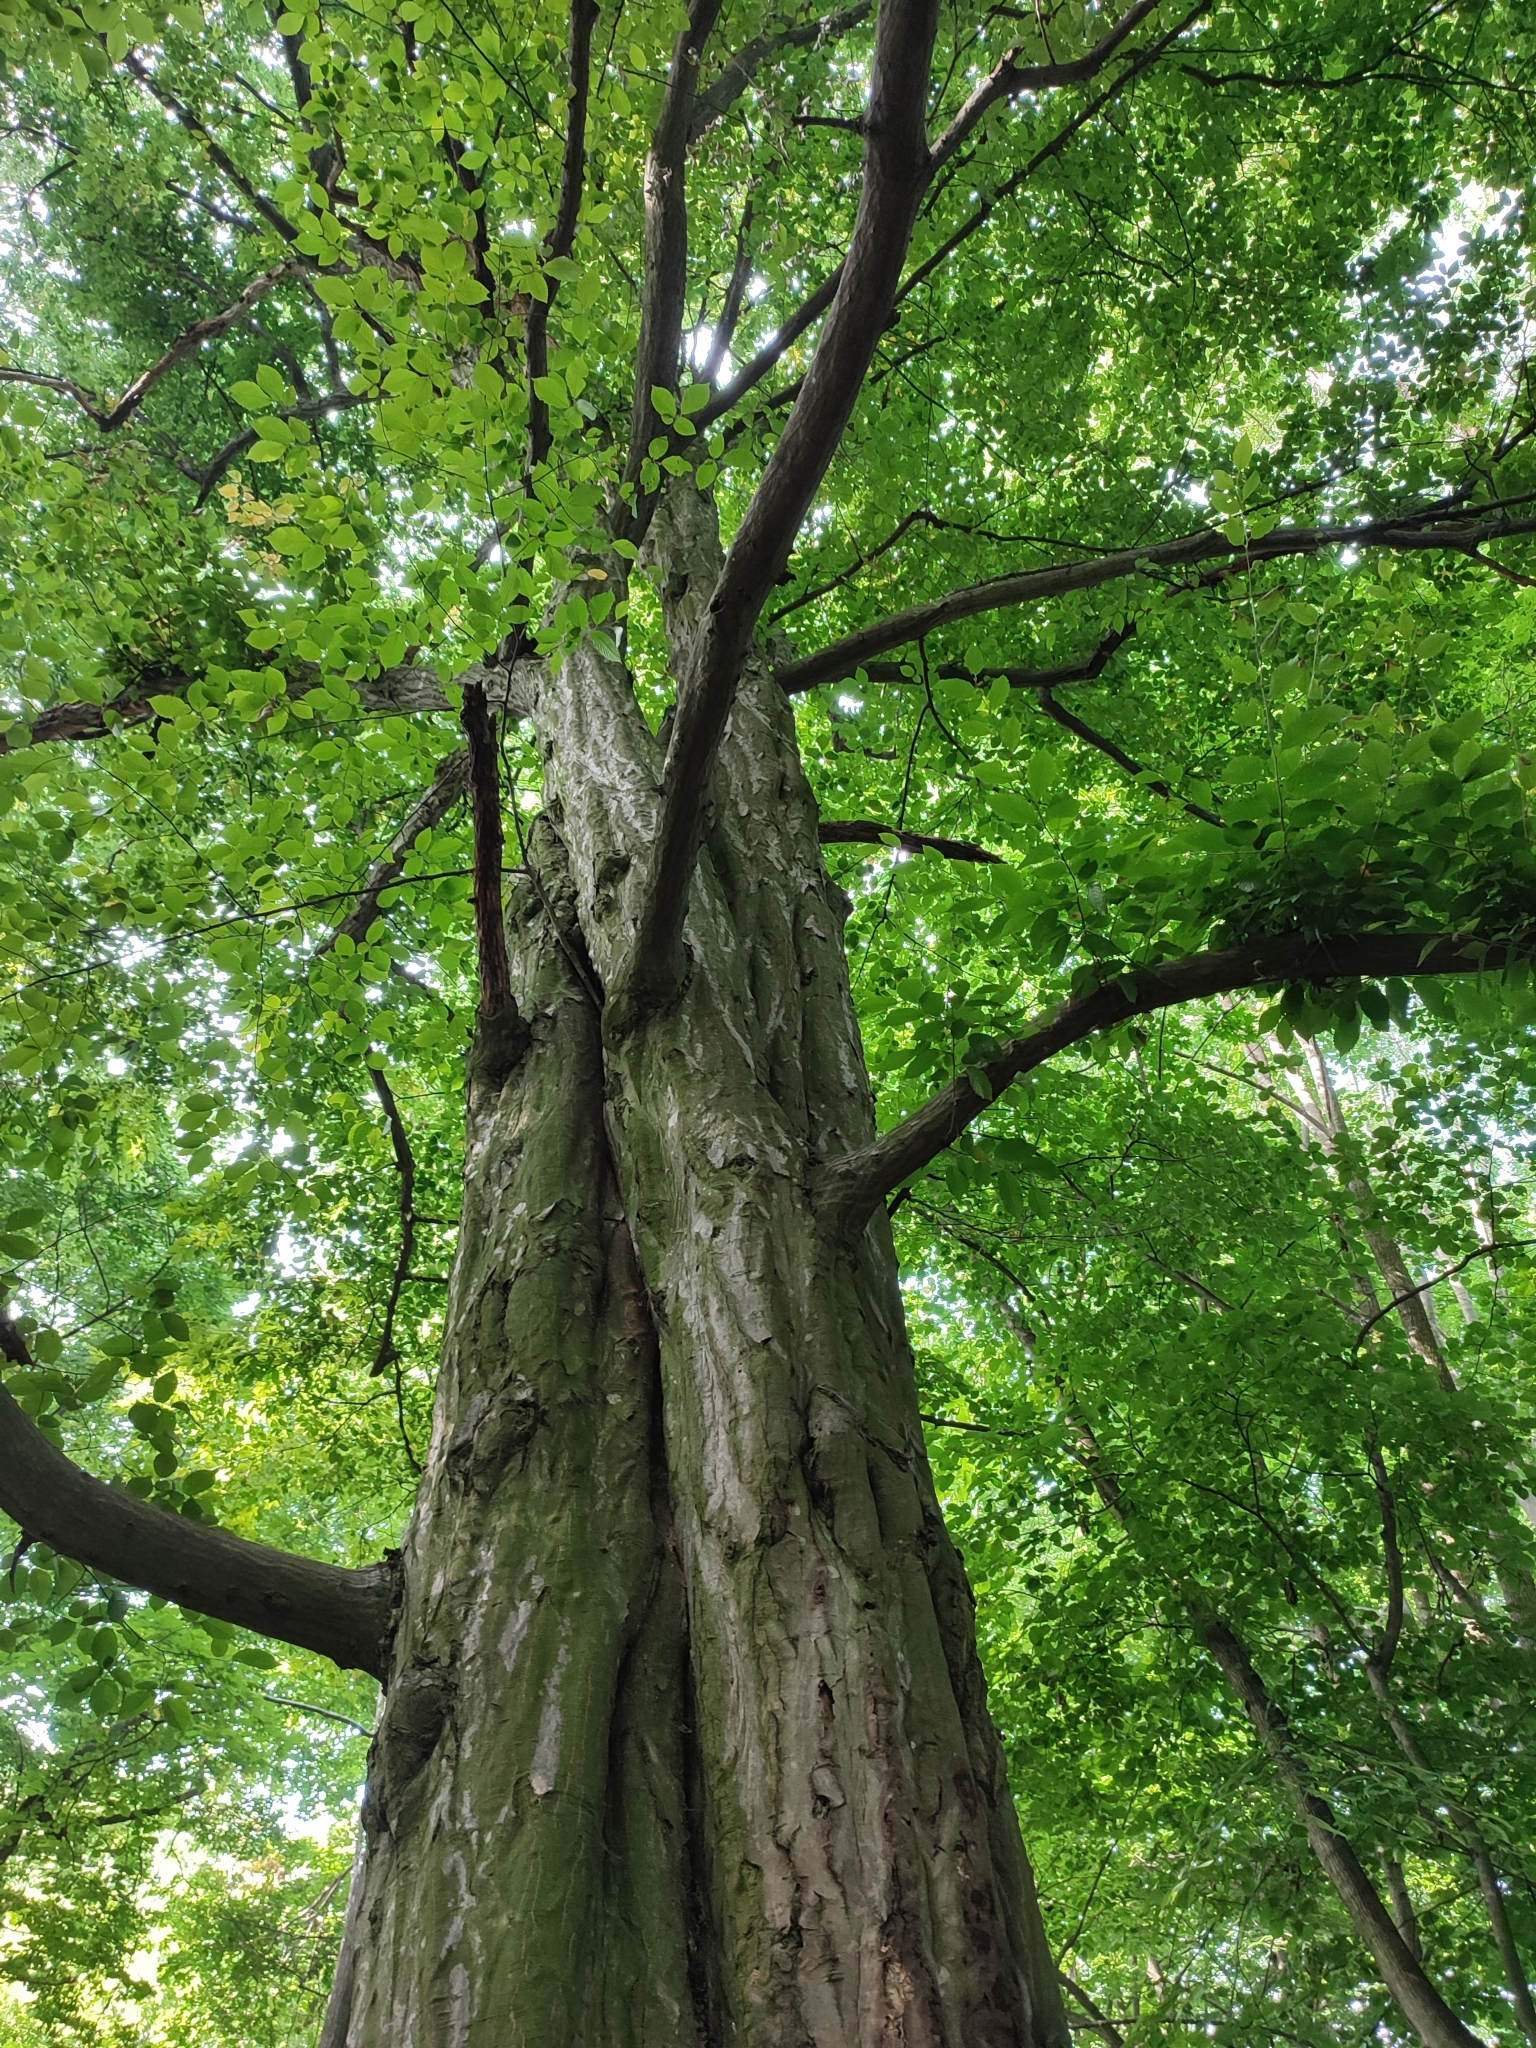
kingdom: Plantae
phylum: Tracheophyta
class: Magnoliopsida
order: Fagales
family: Betulaceae
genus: Carpinus
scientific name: Carpinus betulus
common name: Hornbeam
